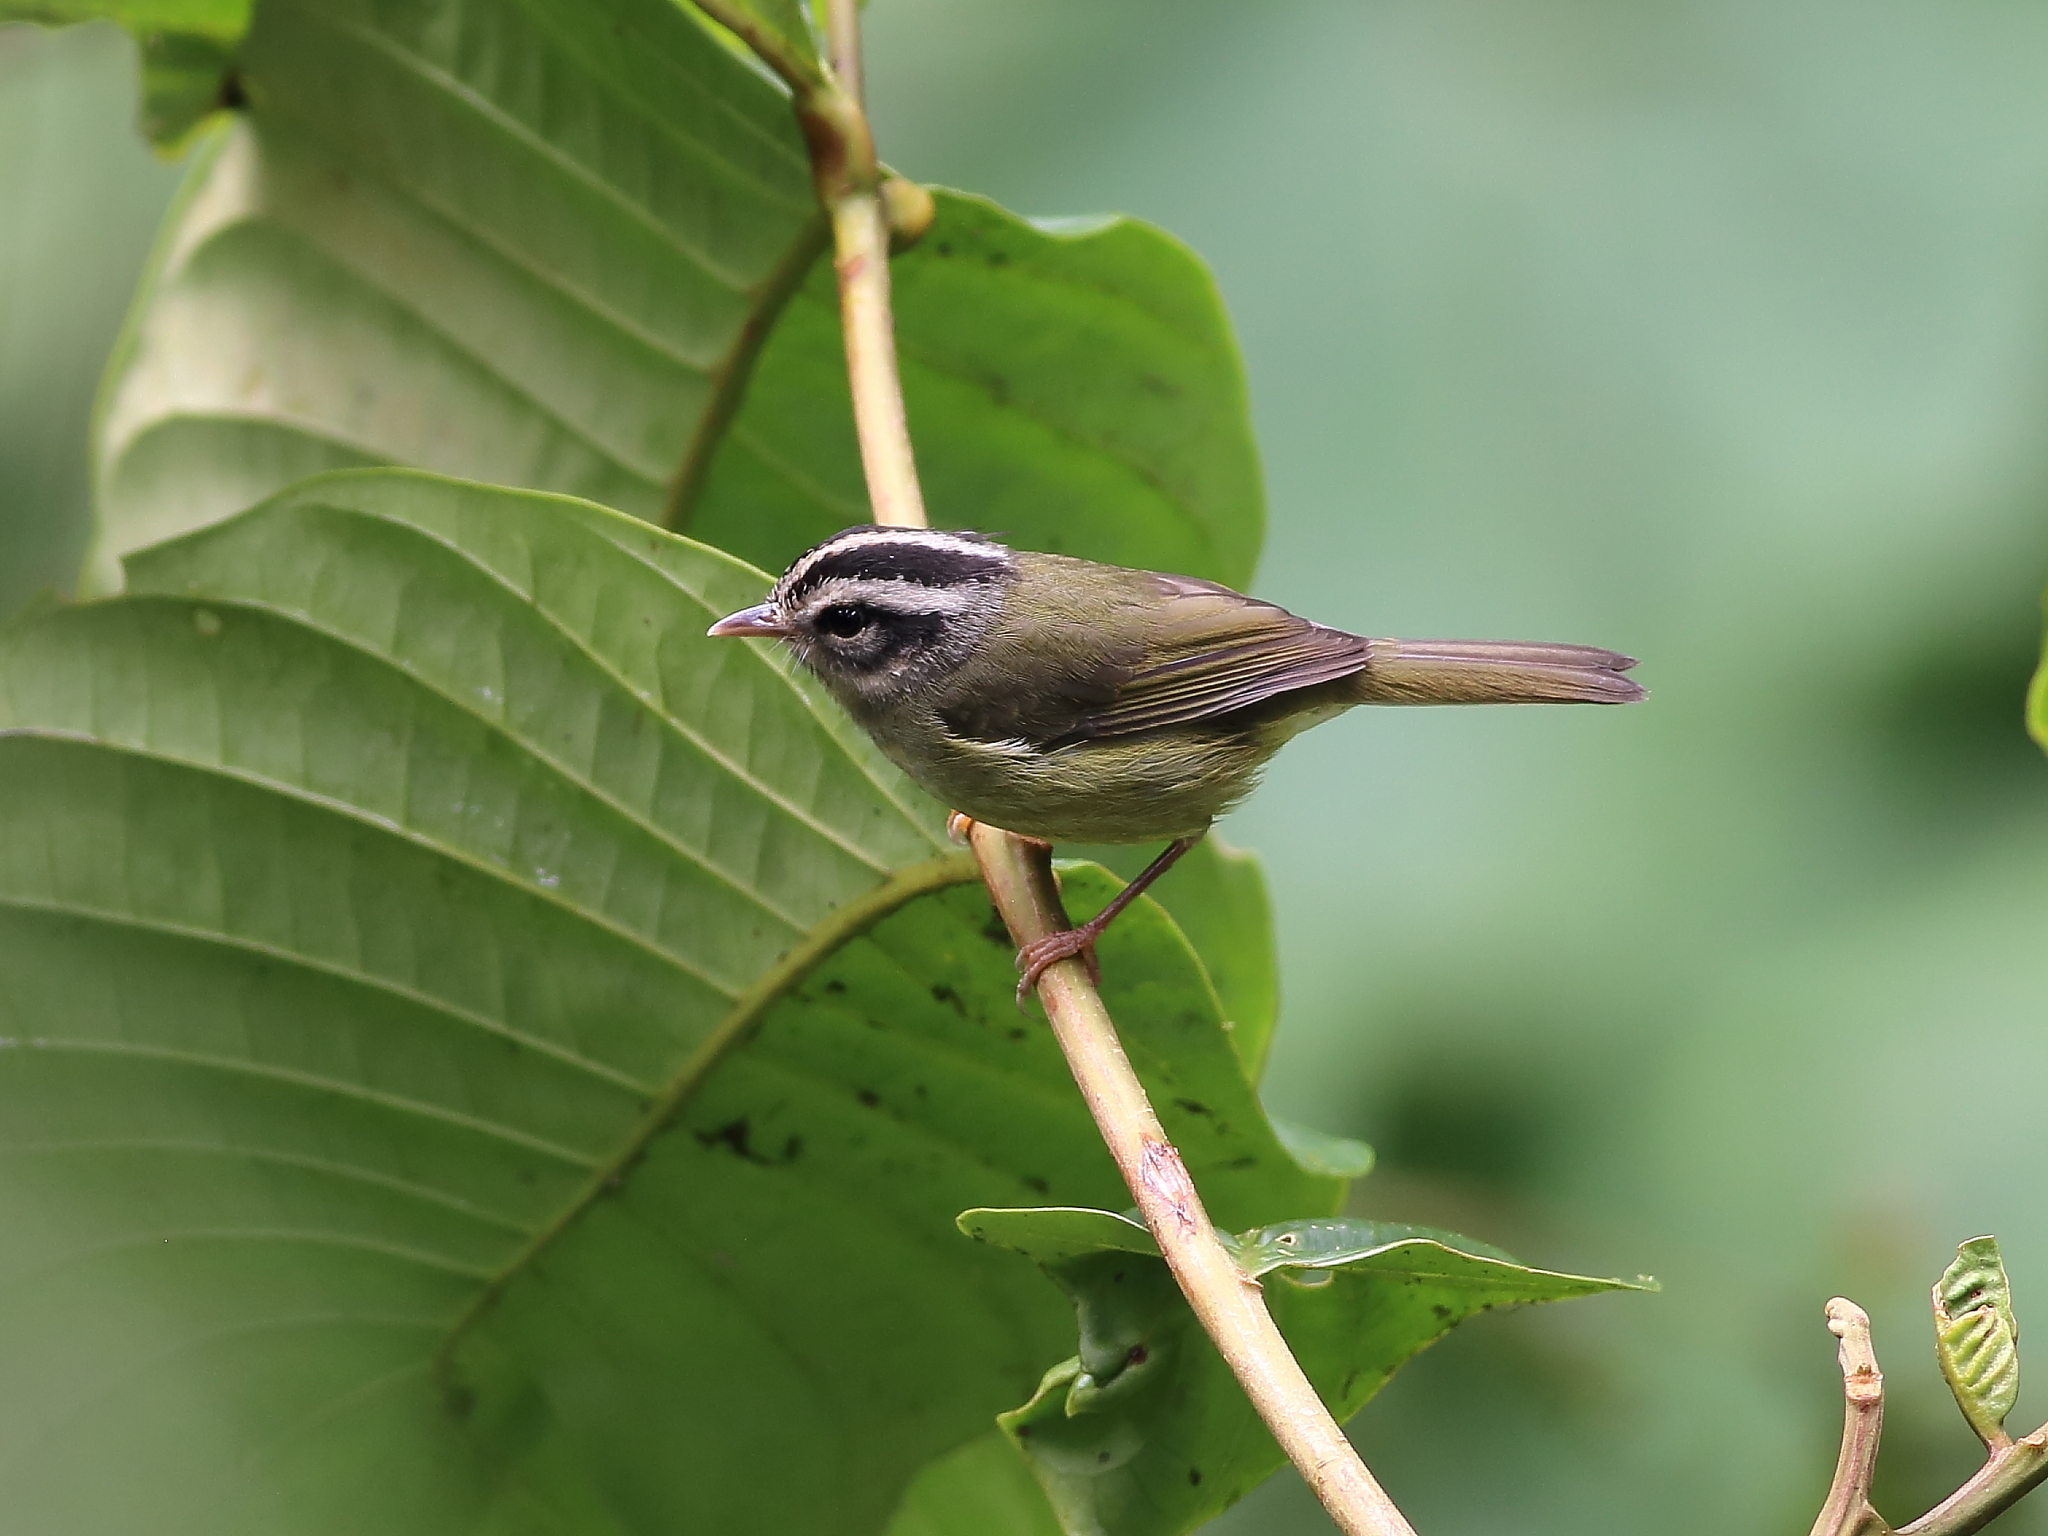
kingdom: Animalia
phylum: Chordata
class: Aves
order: Passeriformes
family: Parulidae
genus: Basileuterus
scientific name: Basileuterus melanotis
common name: Black-eared warbler
